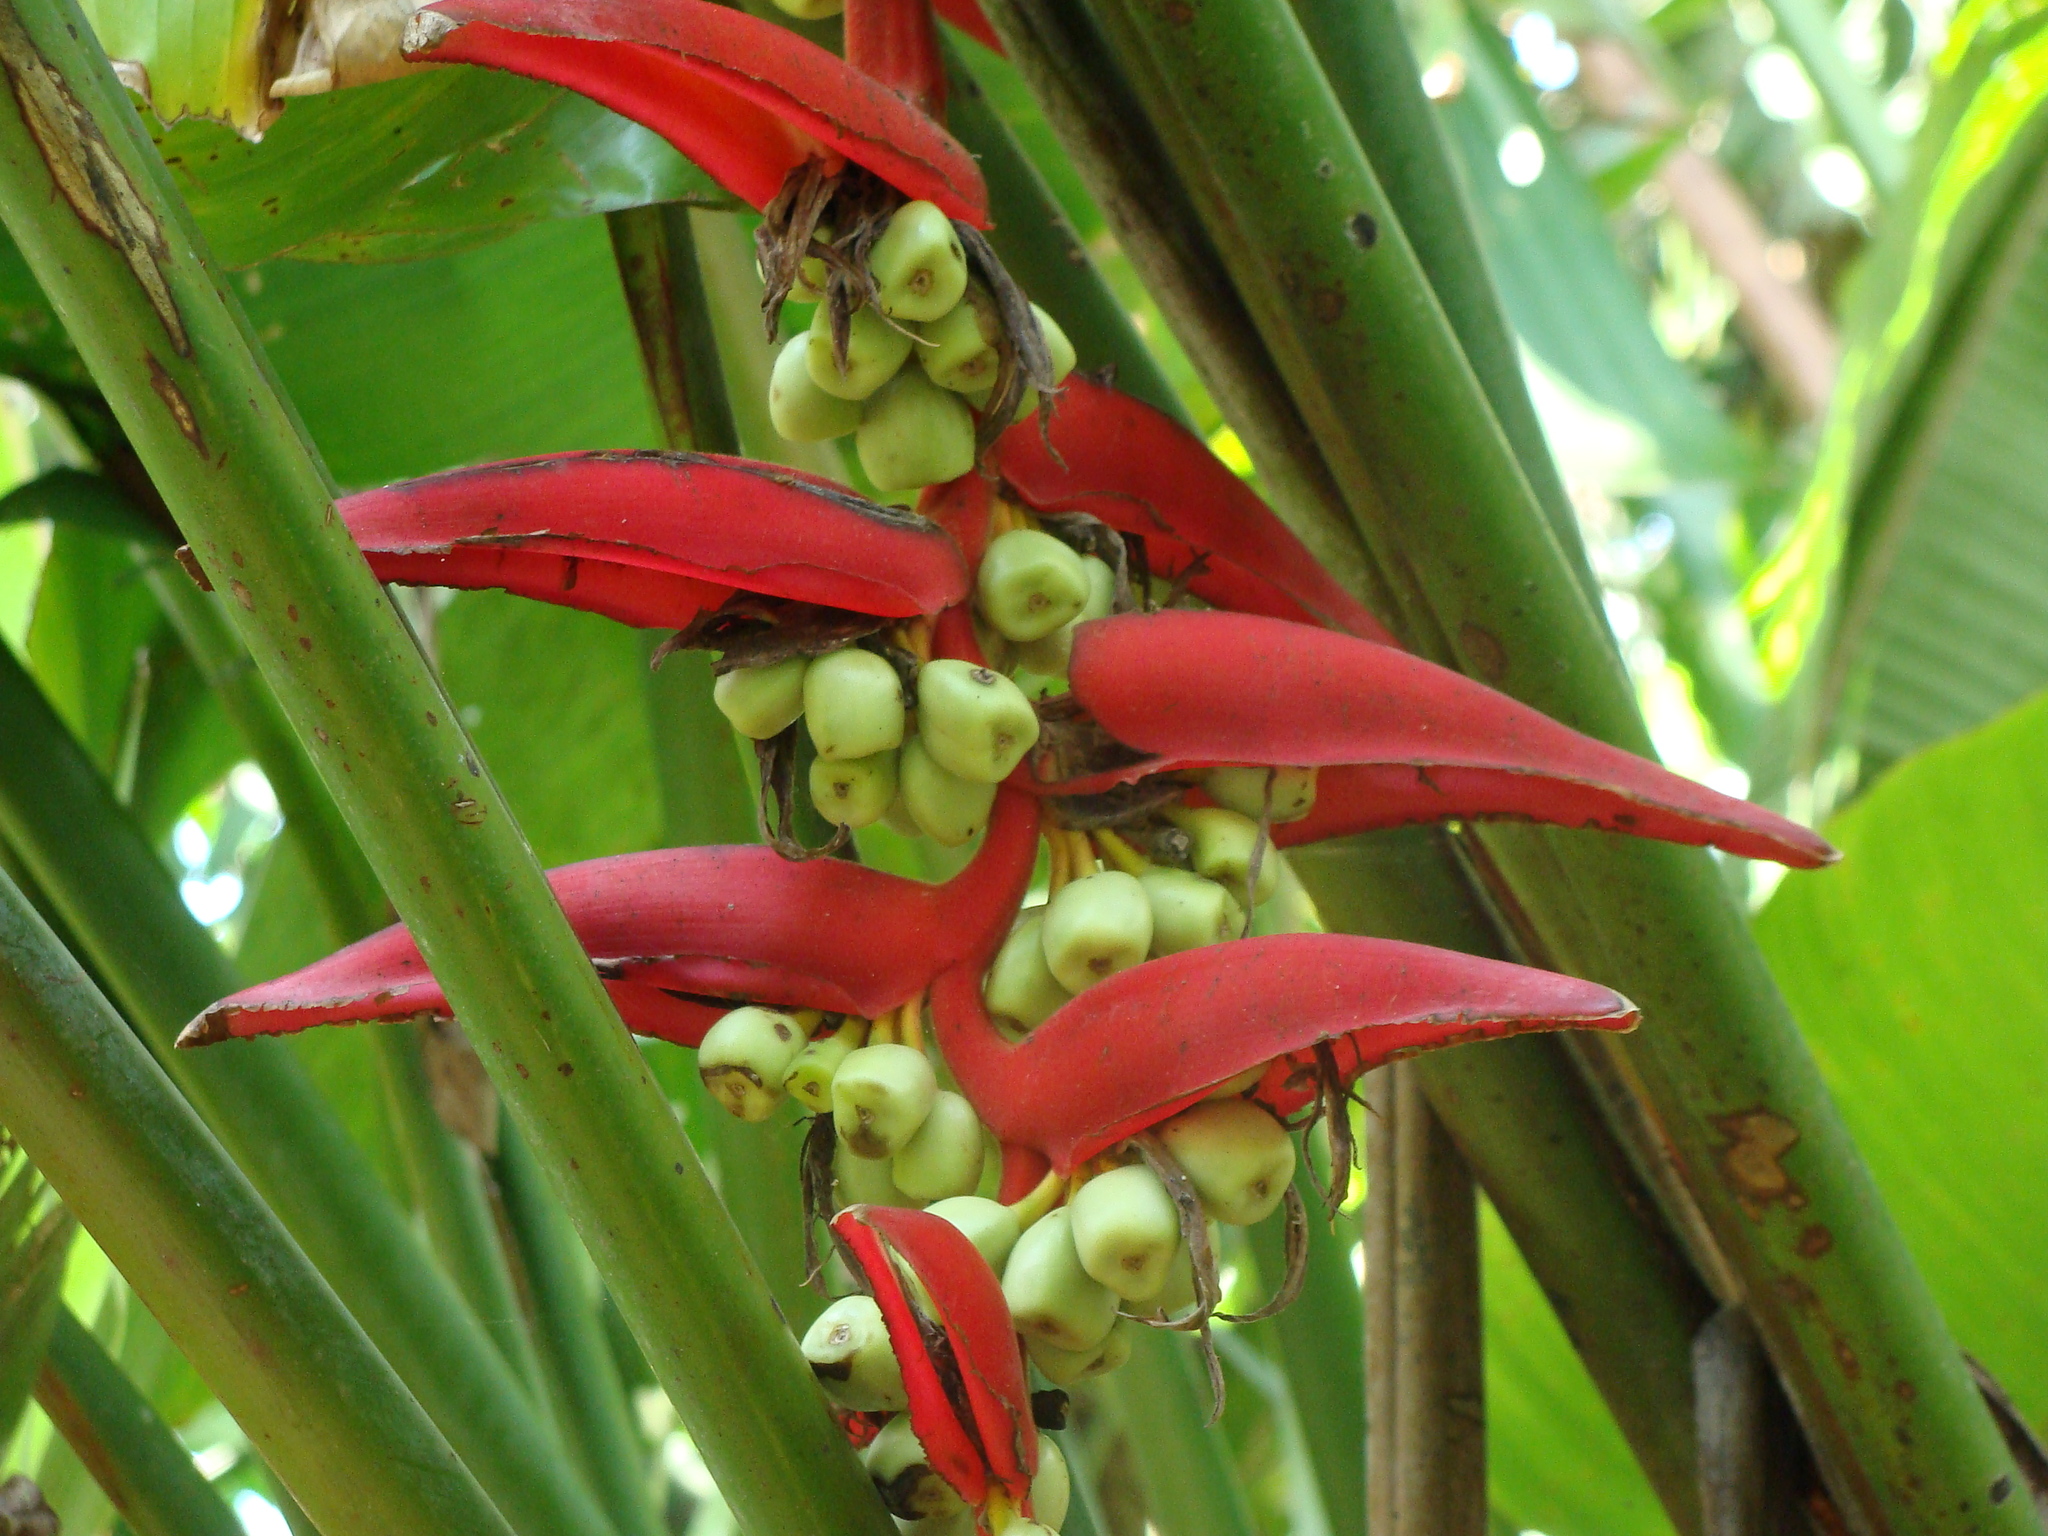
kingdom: Plantae
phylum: Tracheophyta
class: Liliopsida
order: Zingiberales
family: Heliconiaceae
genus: Heliconia
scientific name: Heliconia collinsiana
